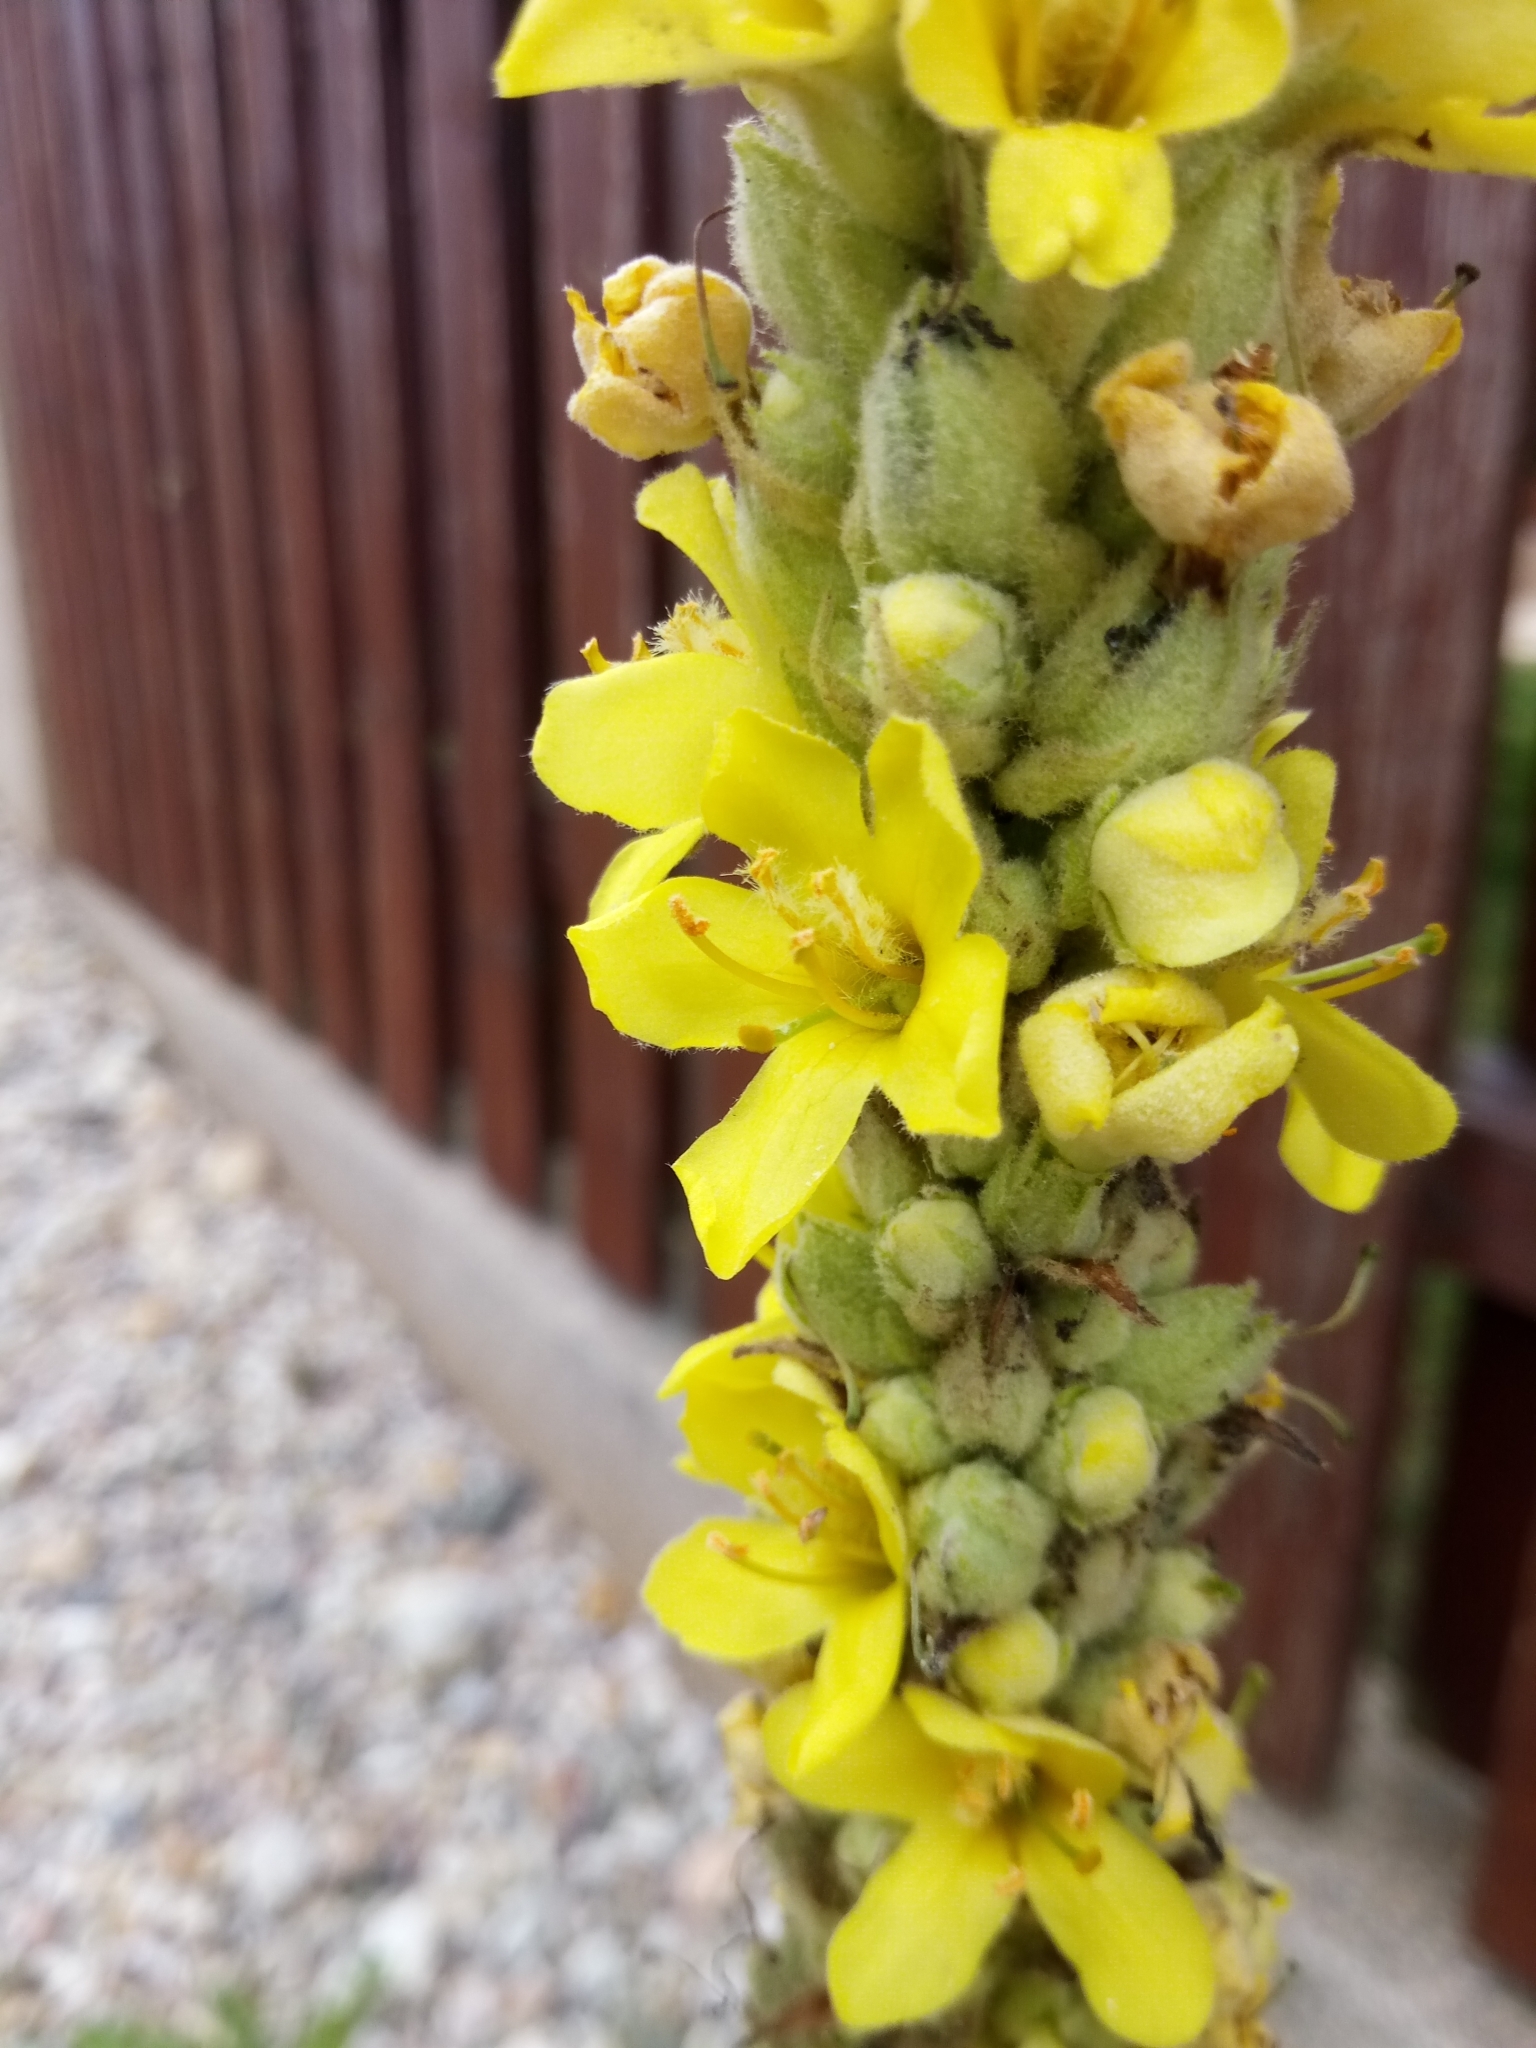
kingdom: Plantae
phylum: Tracheophyta
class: Magnoliopsida
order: Lamiales
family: Scrophulariaceae
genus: Verbascum
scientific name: Verbascum thapsus
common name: Common mullein
